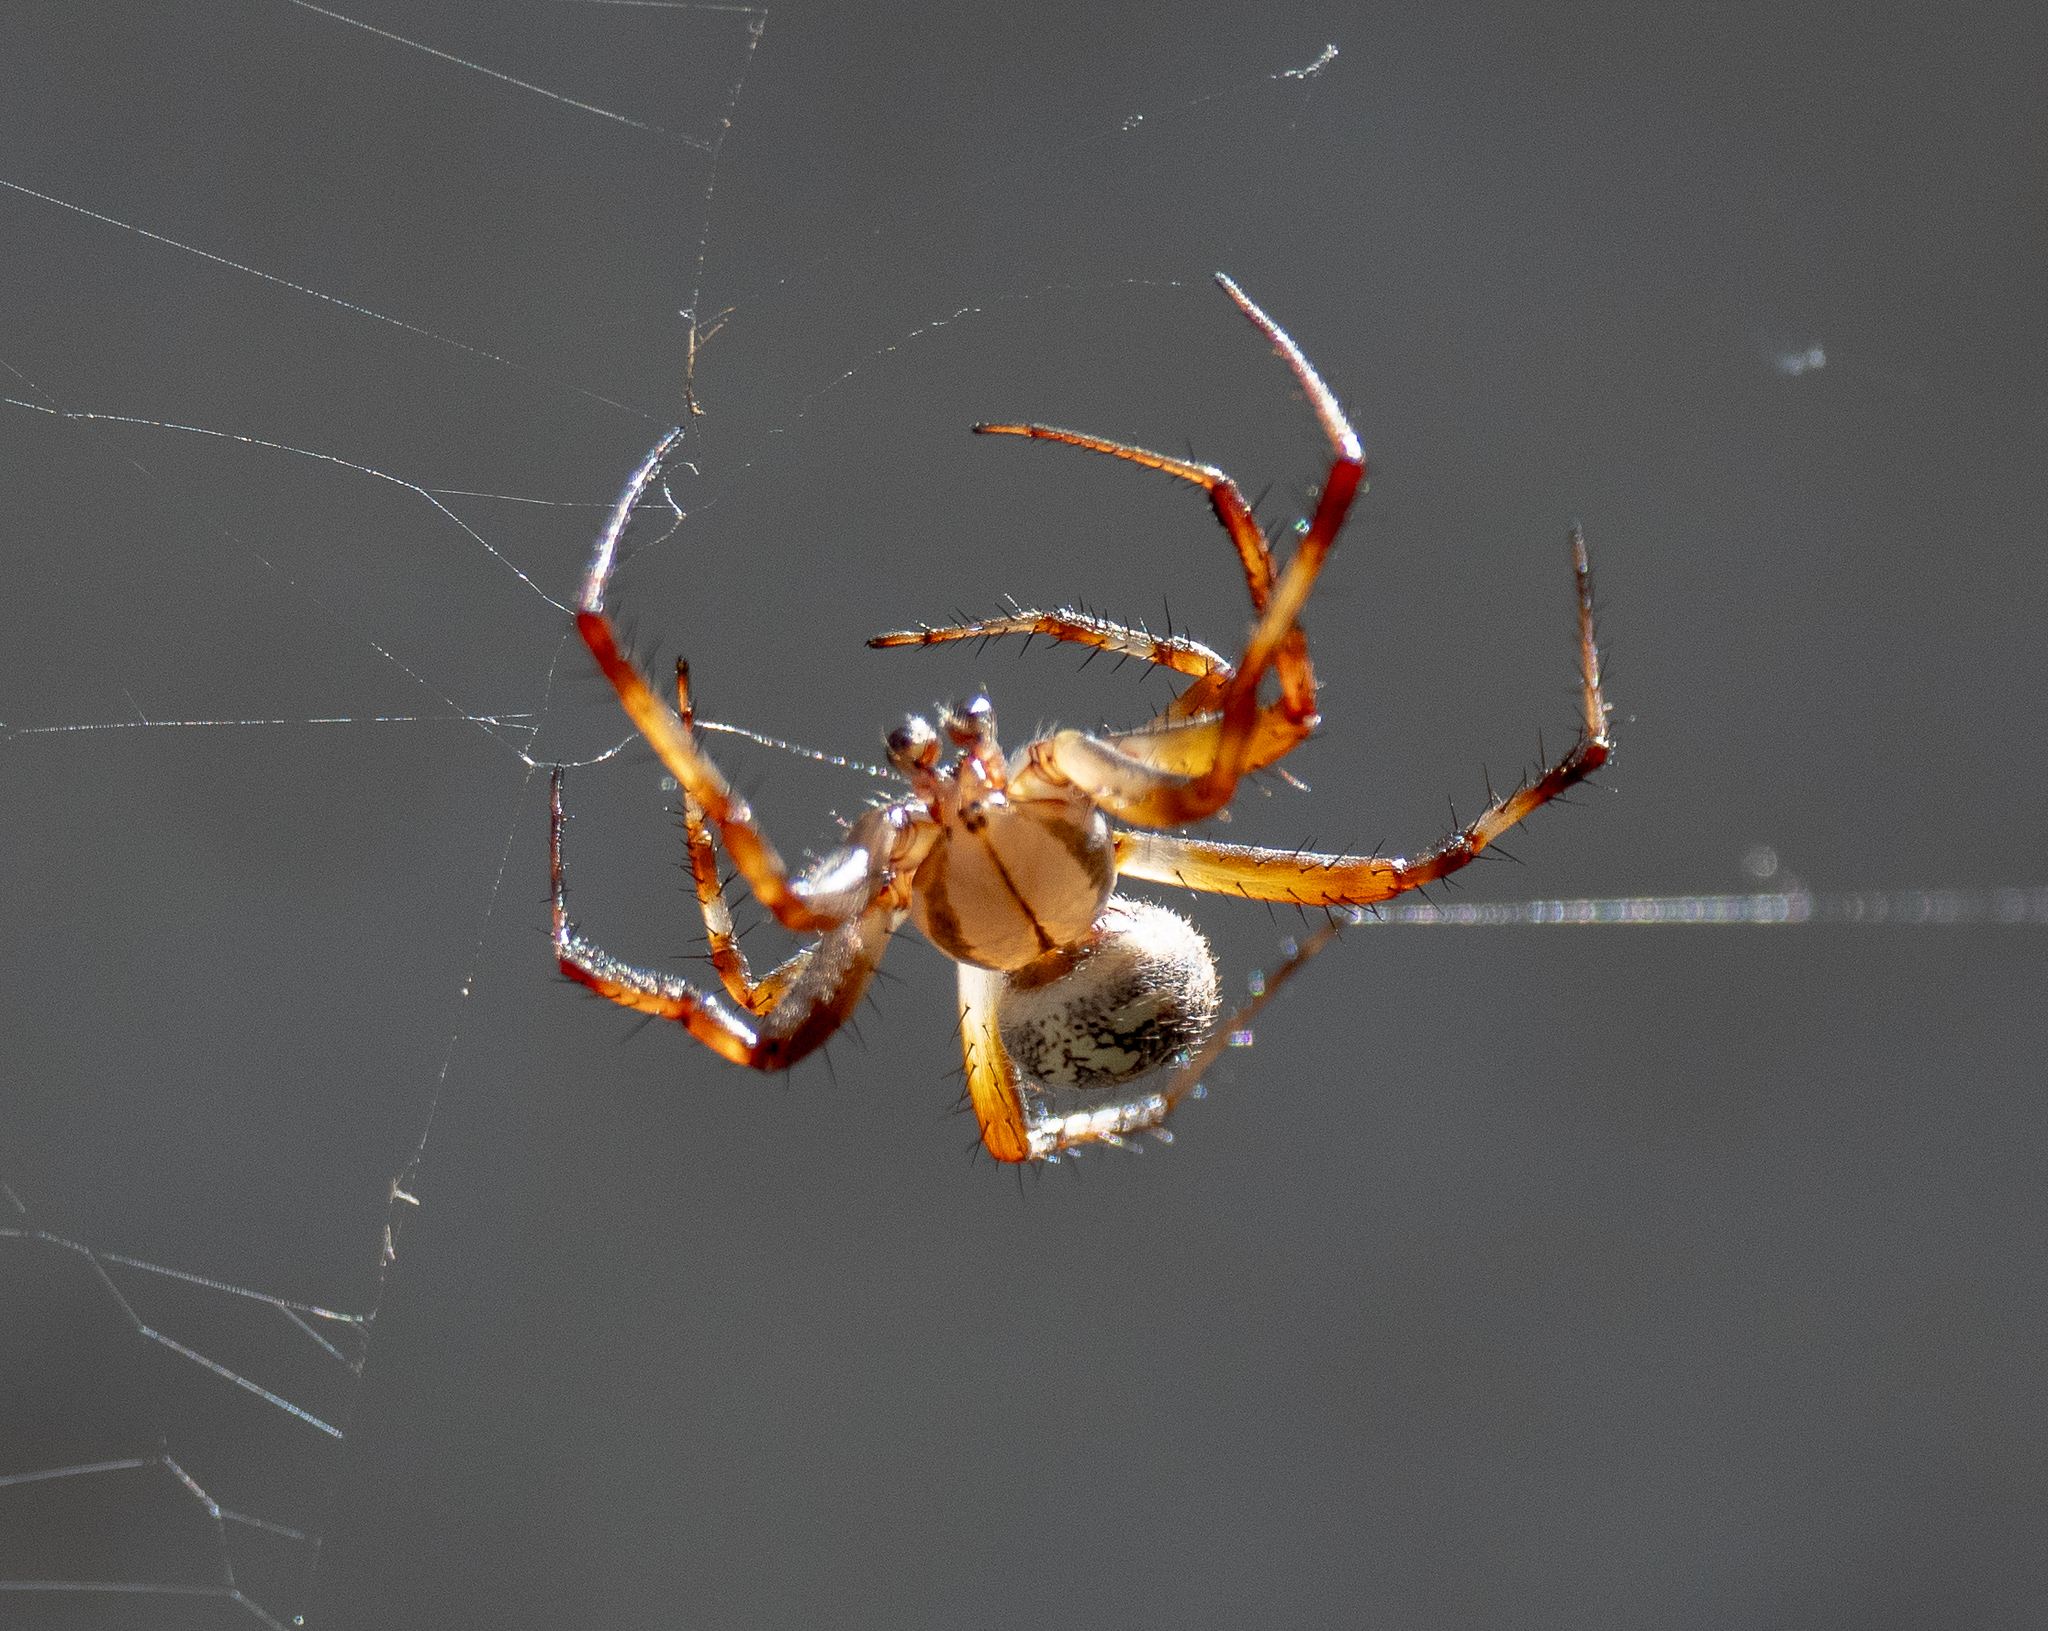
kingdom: Animalia
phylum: Arthropoda
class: Arachnida
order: Araneae
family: Araneidae
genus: Neoscona
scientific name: Neoscona oaxacensis
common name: Orb weavers
